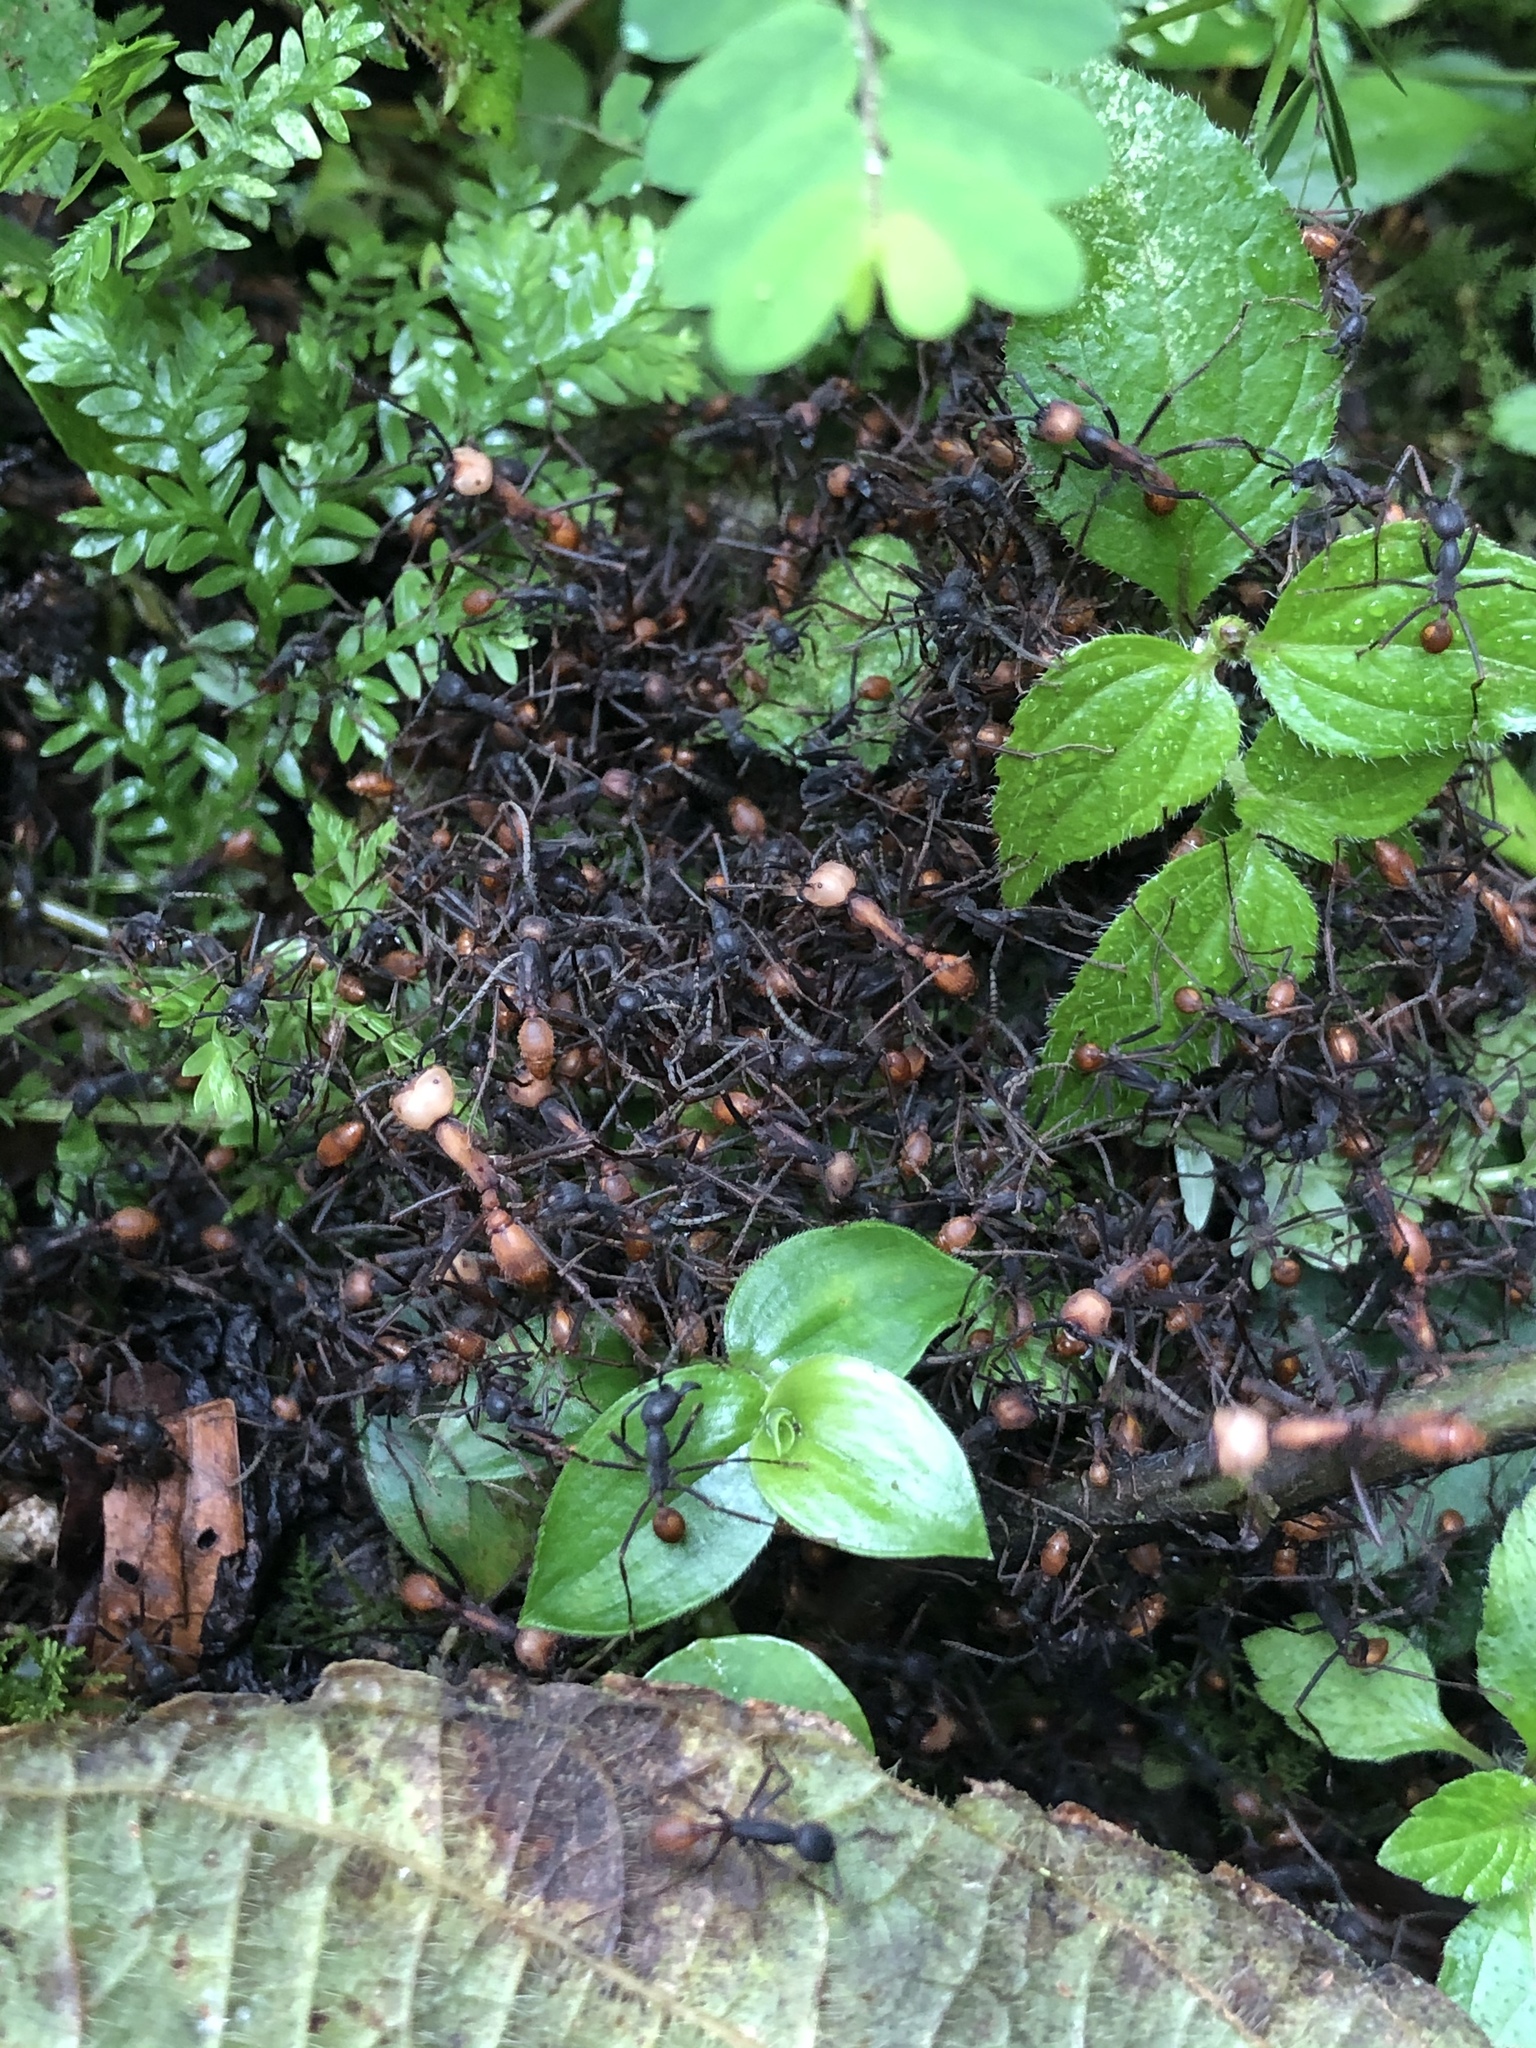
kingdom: Animalia
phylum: Arthropoda
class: Insecta
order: Hymenoptera
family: Formicidae
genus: Eciton
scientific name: Eciton burchellii
